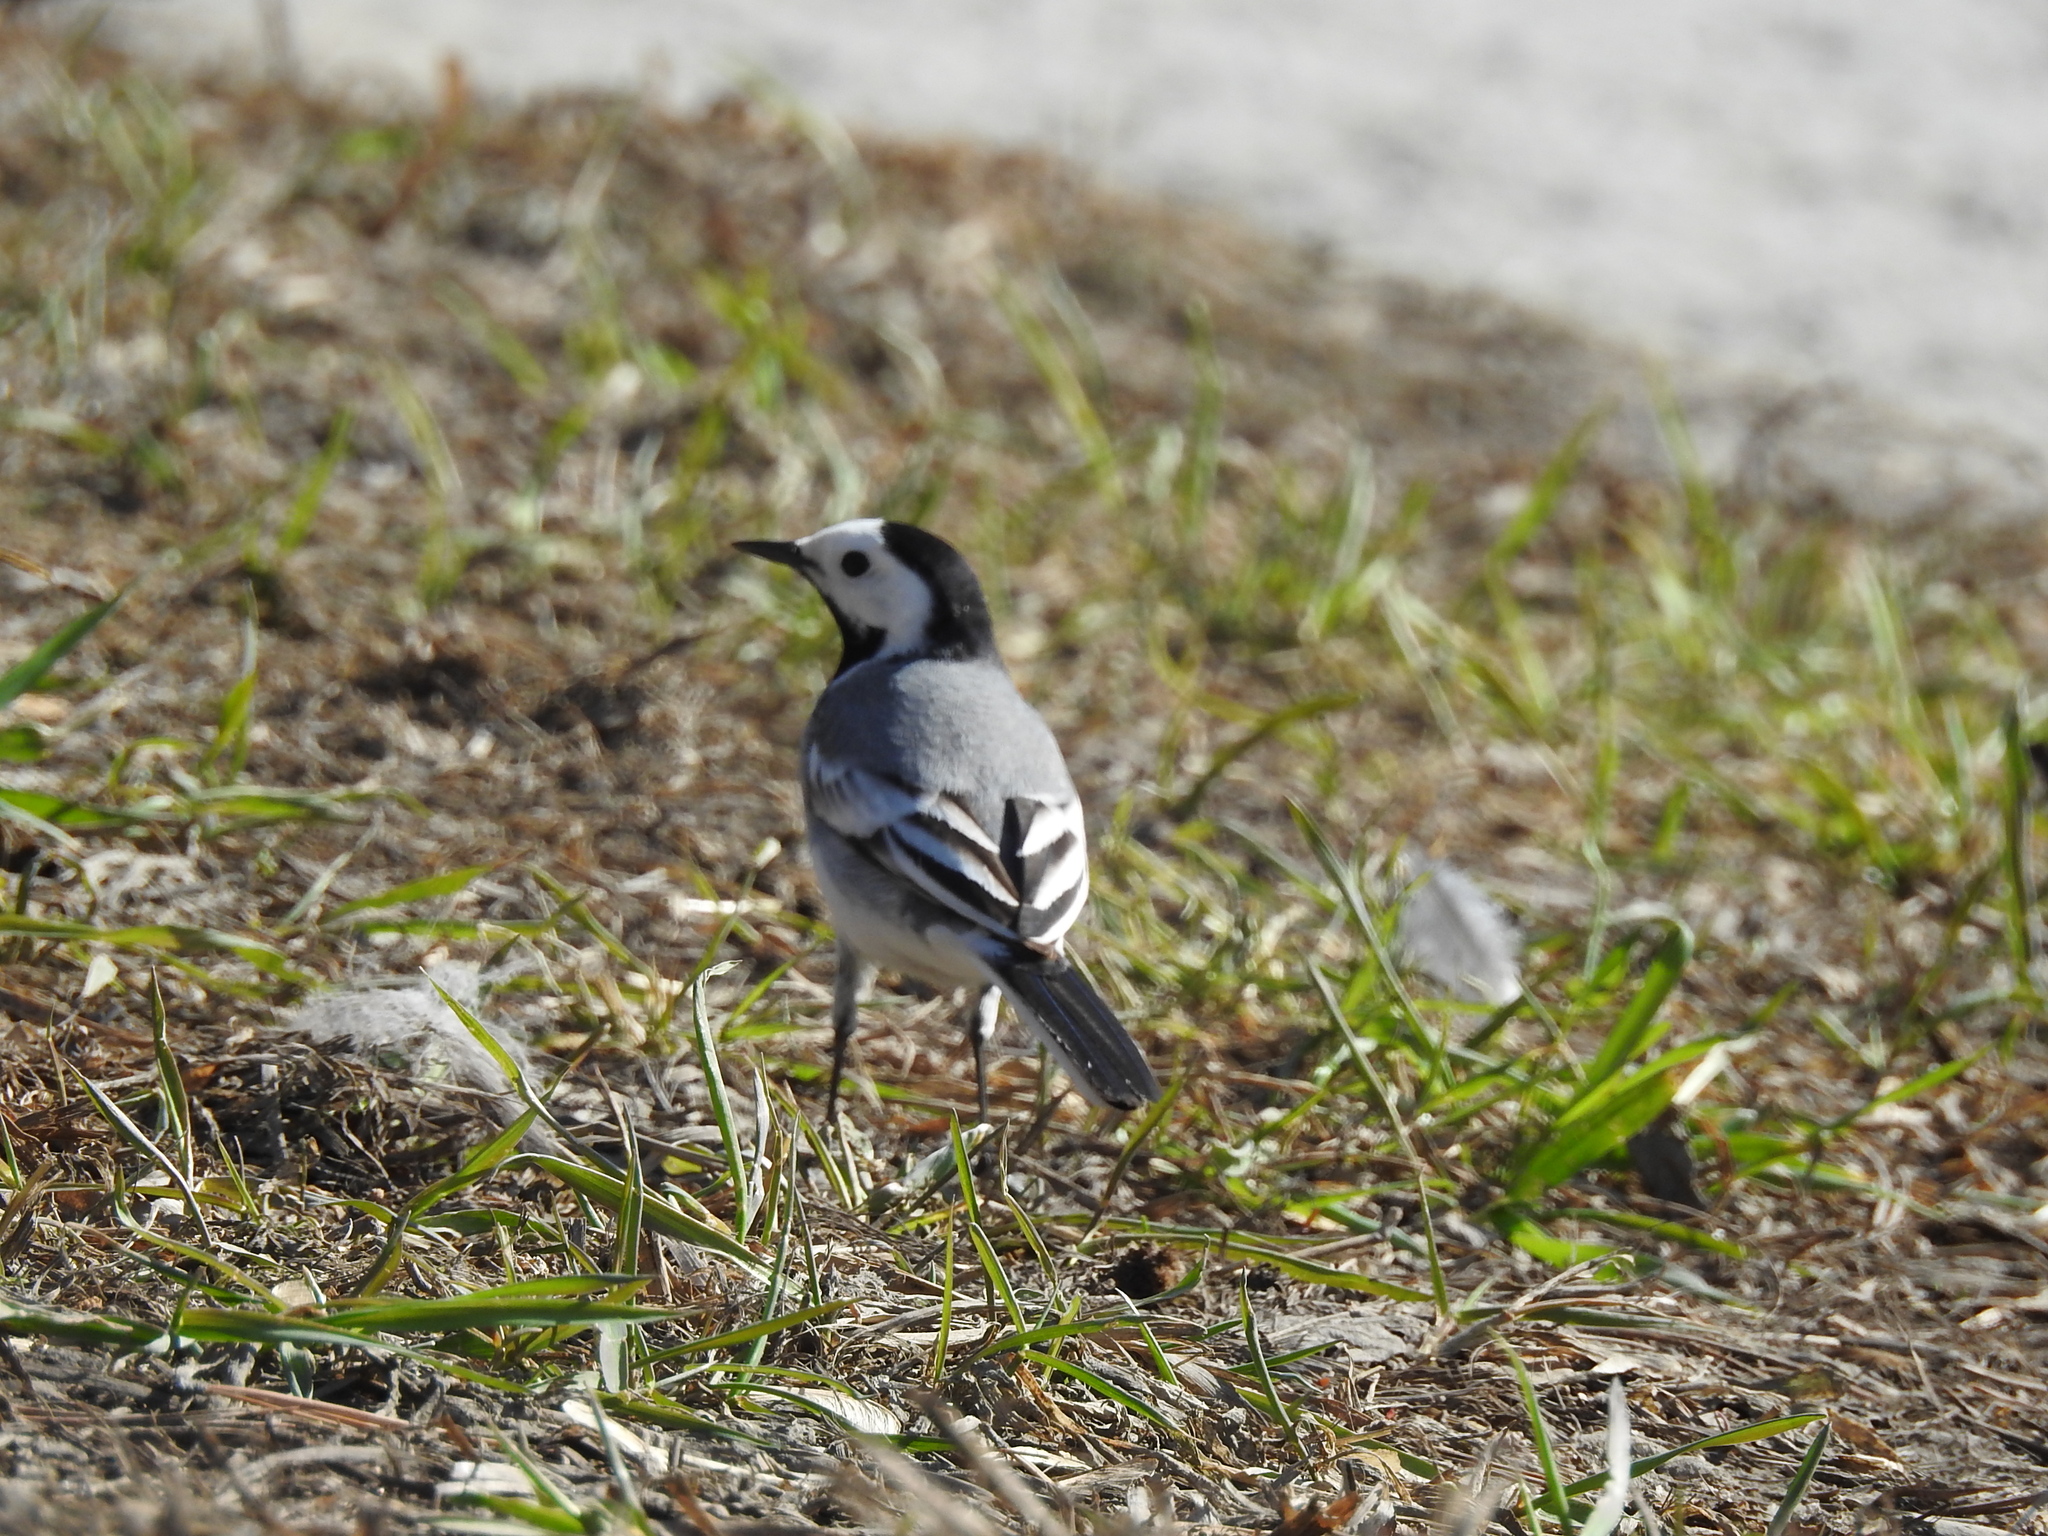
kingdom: Animalia
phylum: Chordata
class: Aves
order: Passeriformes
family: Motacillidae
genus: Motacilla
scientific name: Motacilla alba
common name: White wagtail
